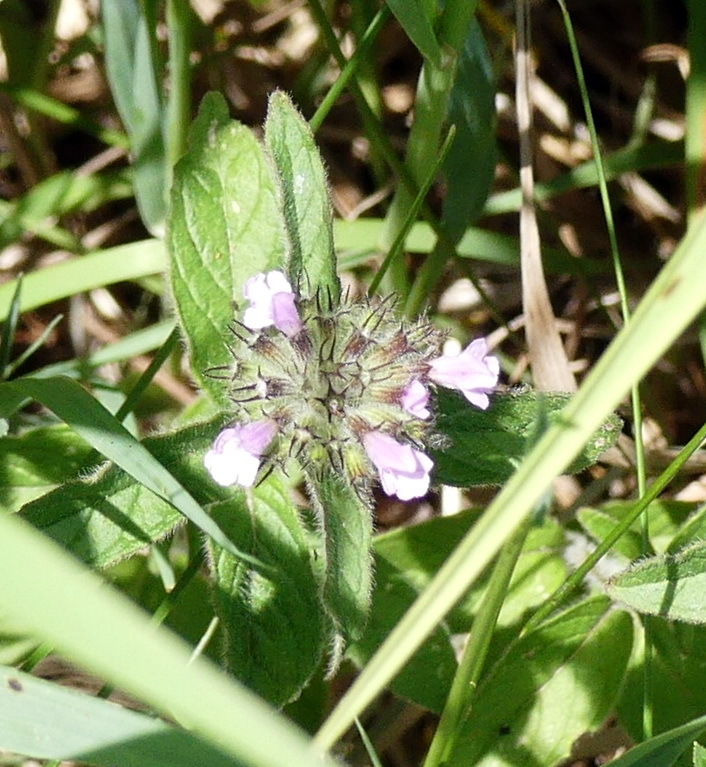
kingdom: Plantae
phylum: Tracheophyta
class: Magnoliopsida
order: Lamiales
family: Lamiaceae
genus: Clinopodium
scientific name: Clinopodium vulgare
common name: Wild basil
